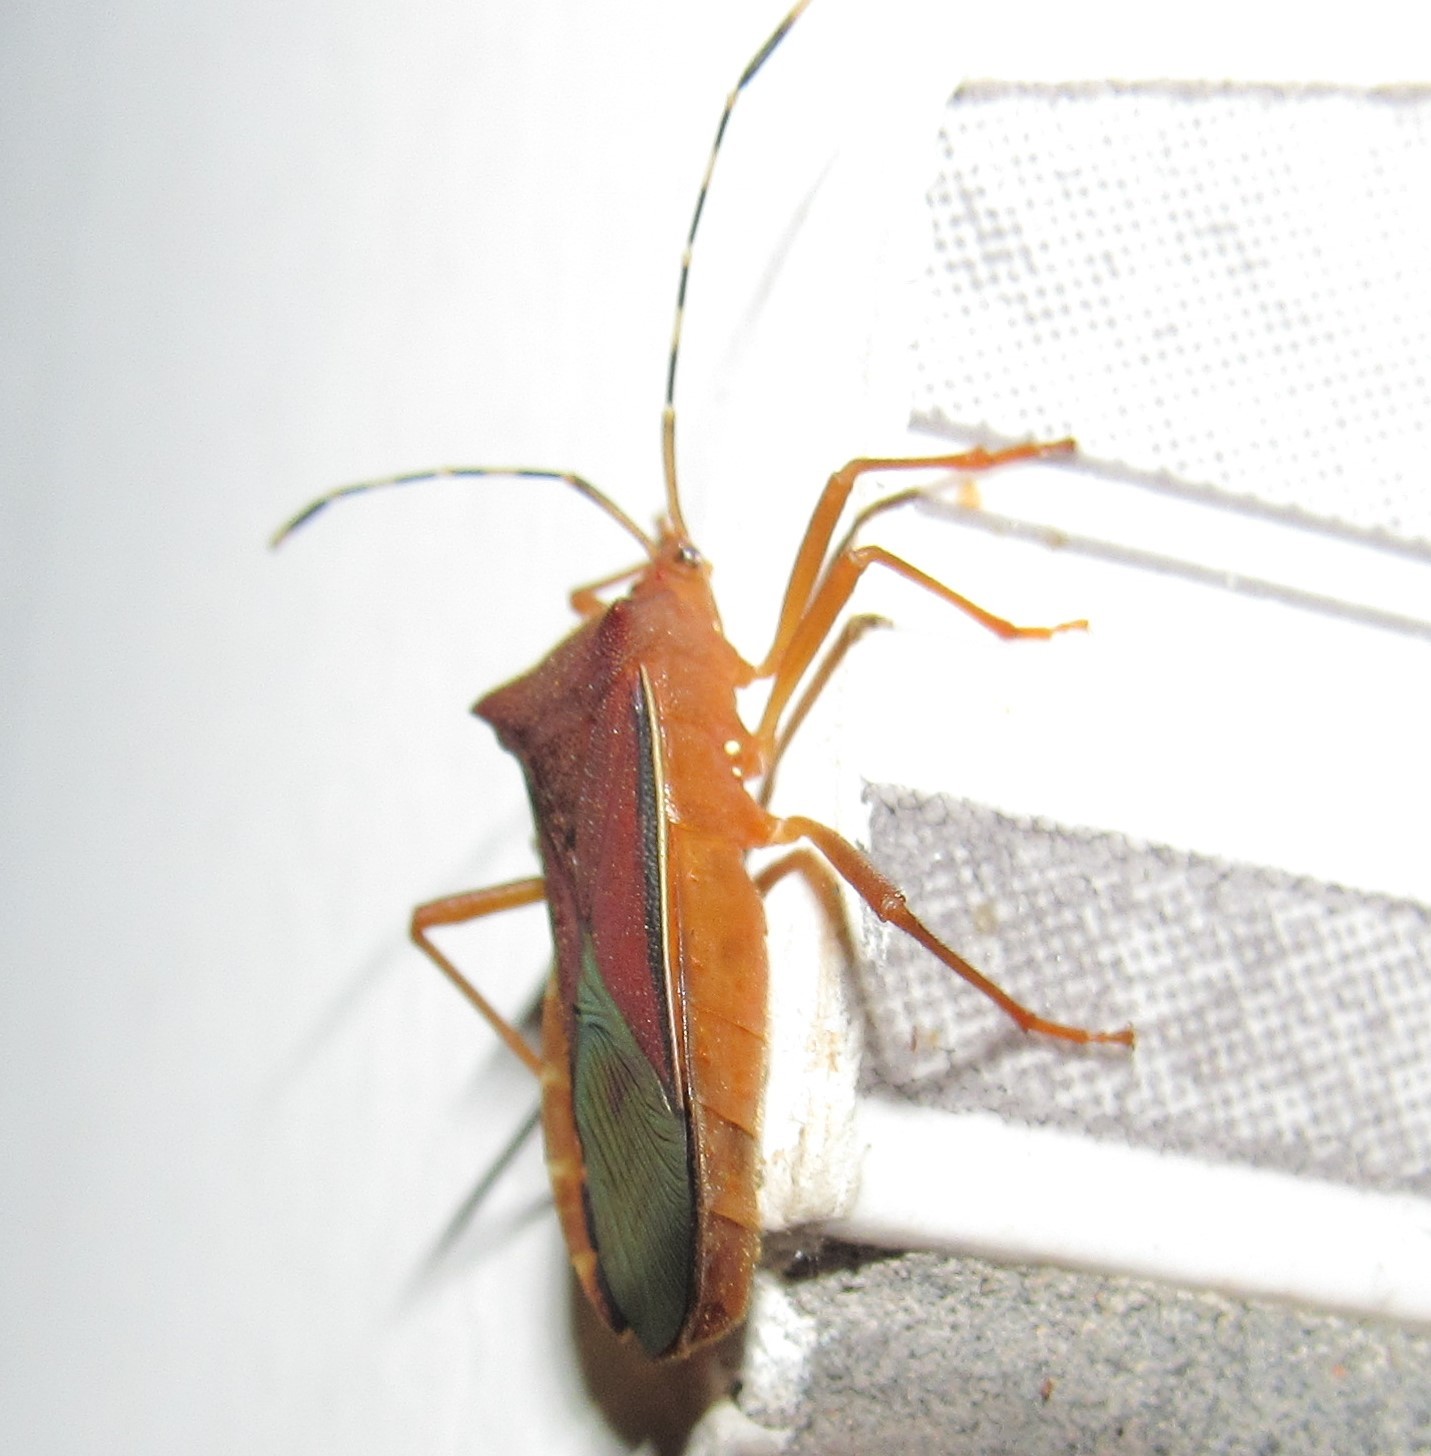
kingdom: Animalia
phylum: Arthropoda
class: Insecta
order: Hemiptera
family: Coreidae
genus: Anasa
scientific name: Anasa varicornis
